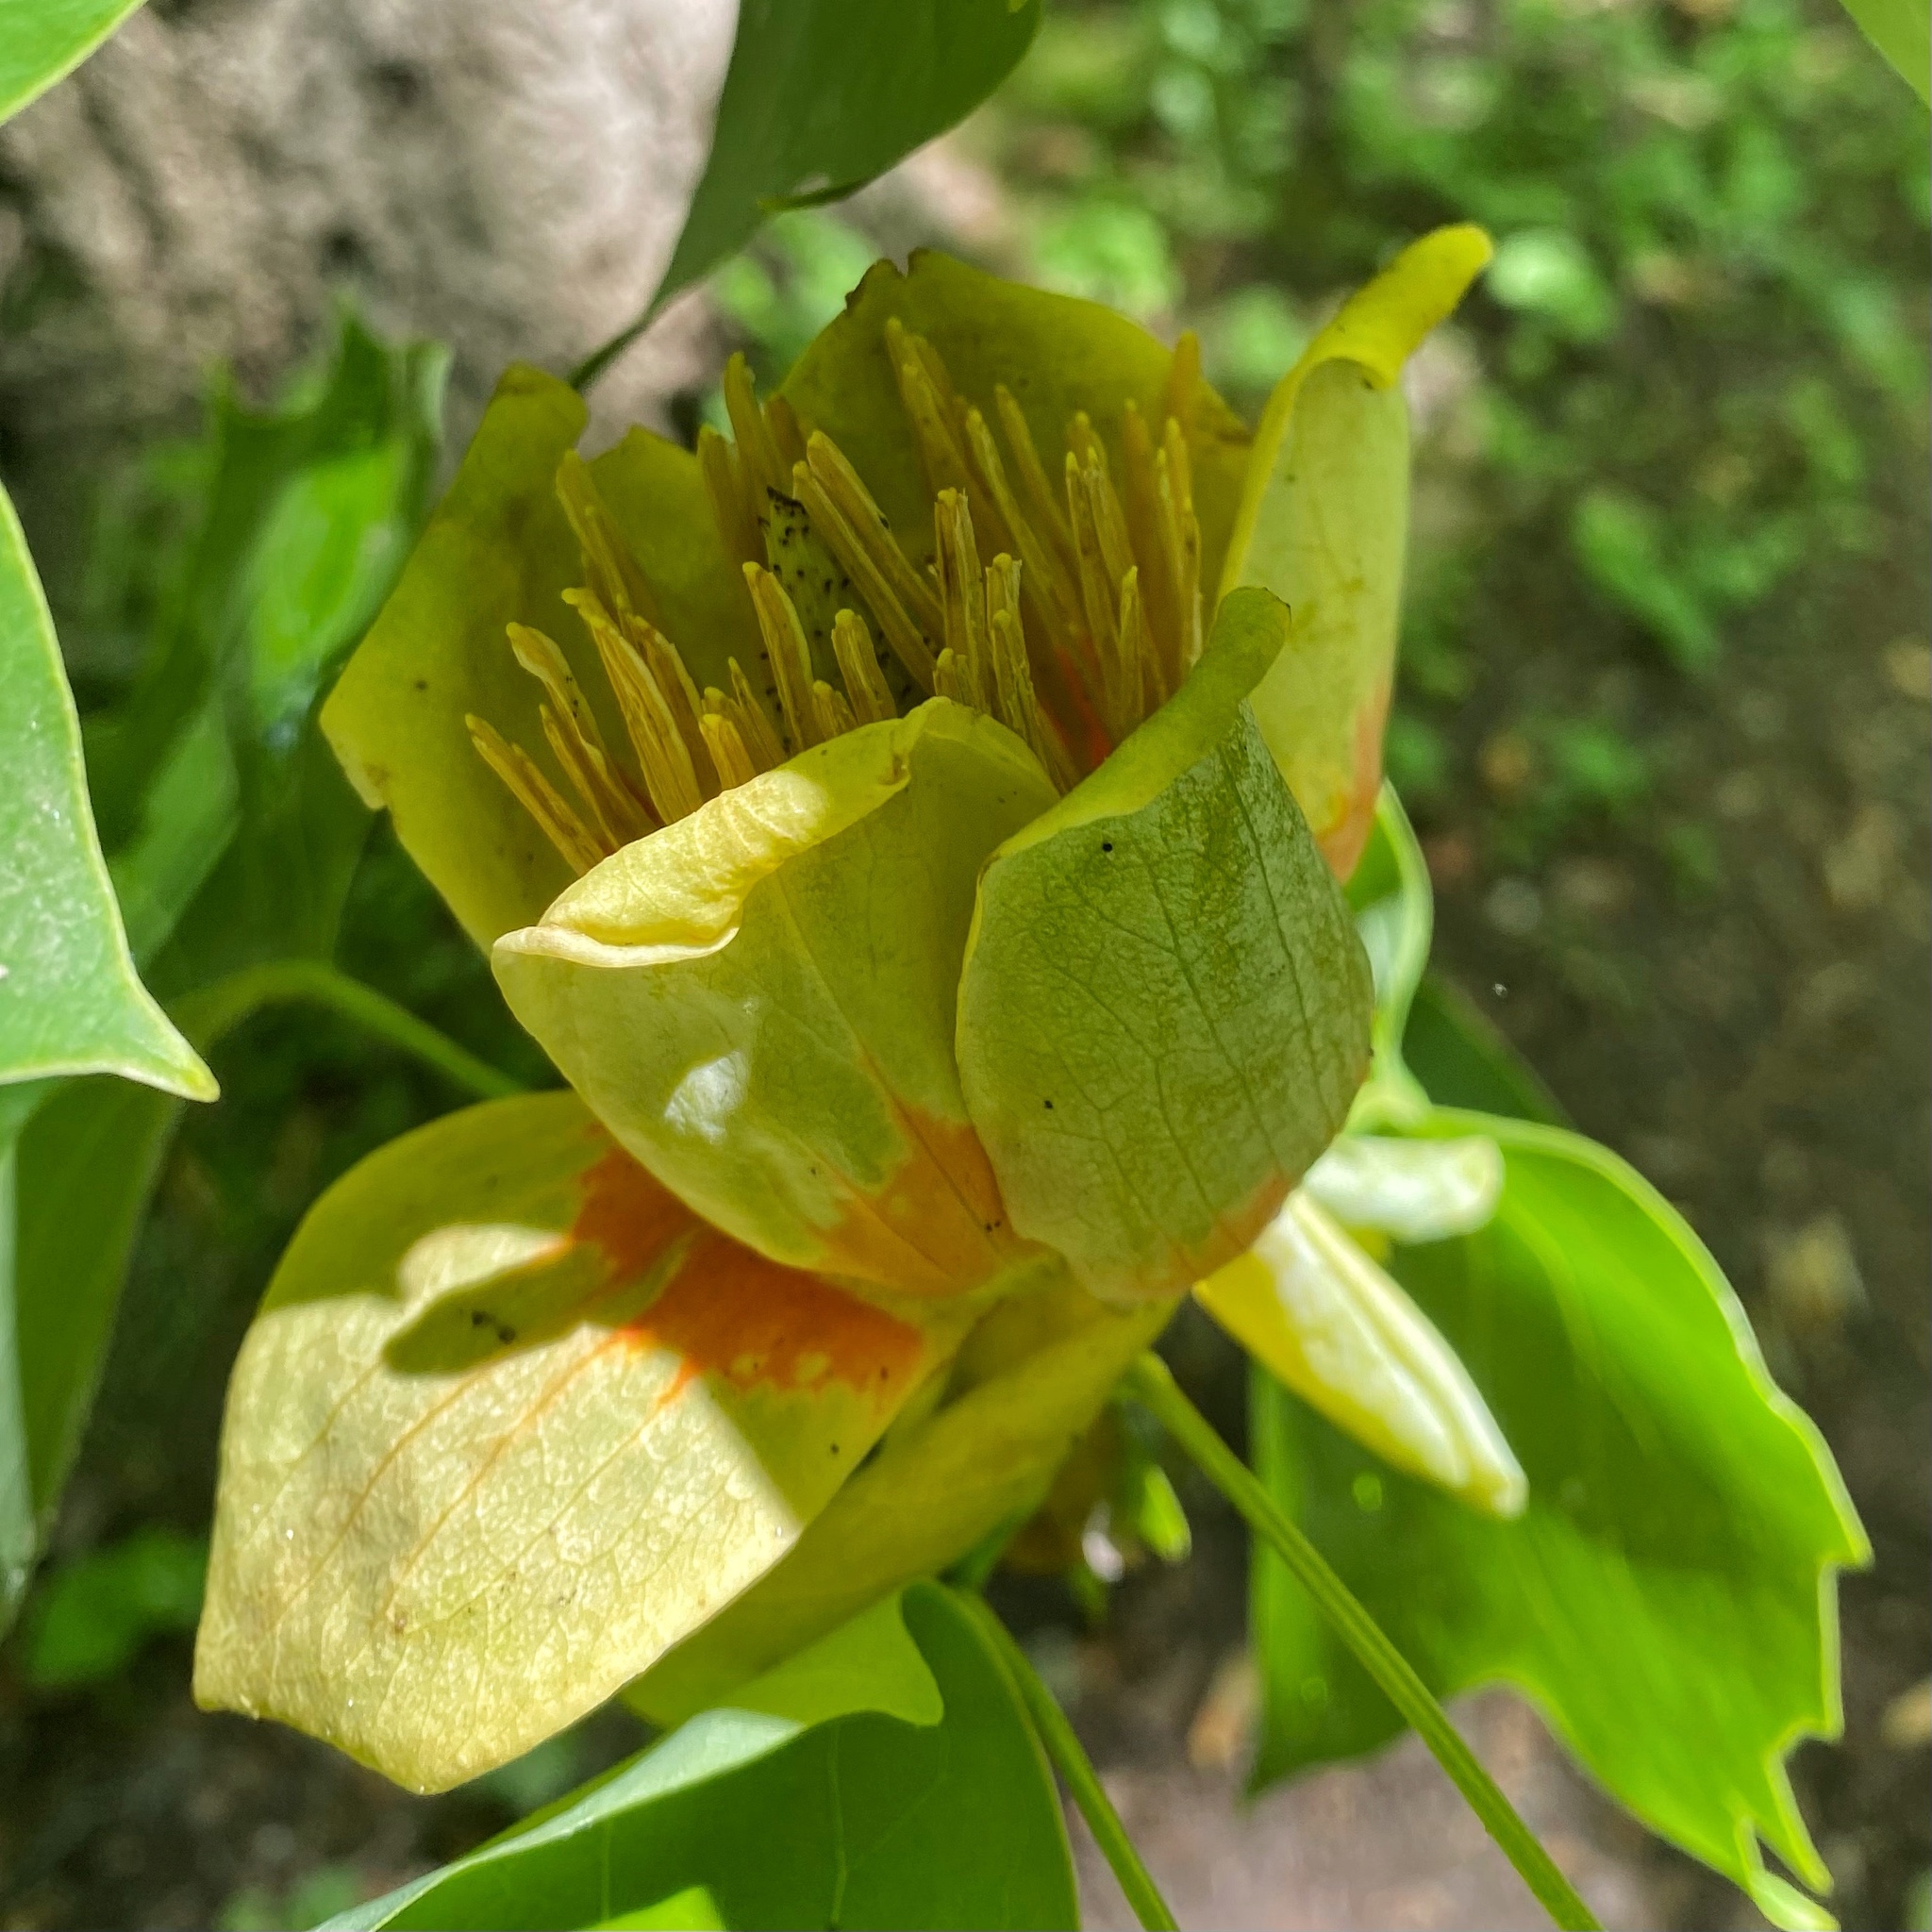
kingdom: Plantae
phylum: Tracheophyta
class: Magnoliopsida
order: Magnoliales
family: Magnoliaceae
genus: Liriodendron
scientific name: Liriodendron tulipifera
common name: Tulip tree
